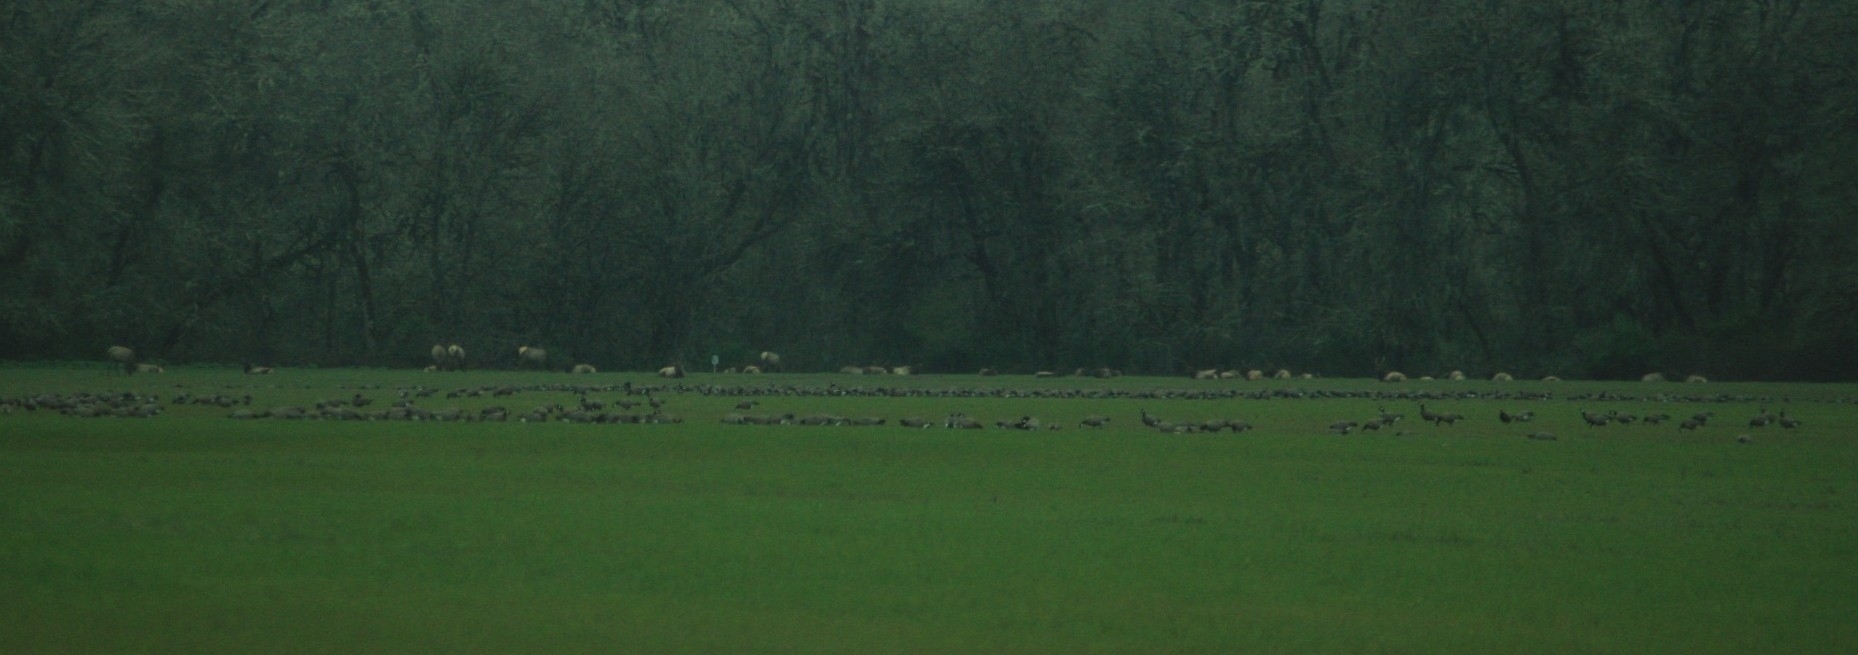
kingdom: Animalia
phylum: Chordata
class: Mammalia
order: Artiodactyla
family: Cervidae
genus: Cervus
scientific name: Cervus elaphus
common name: Red deer
